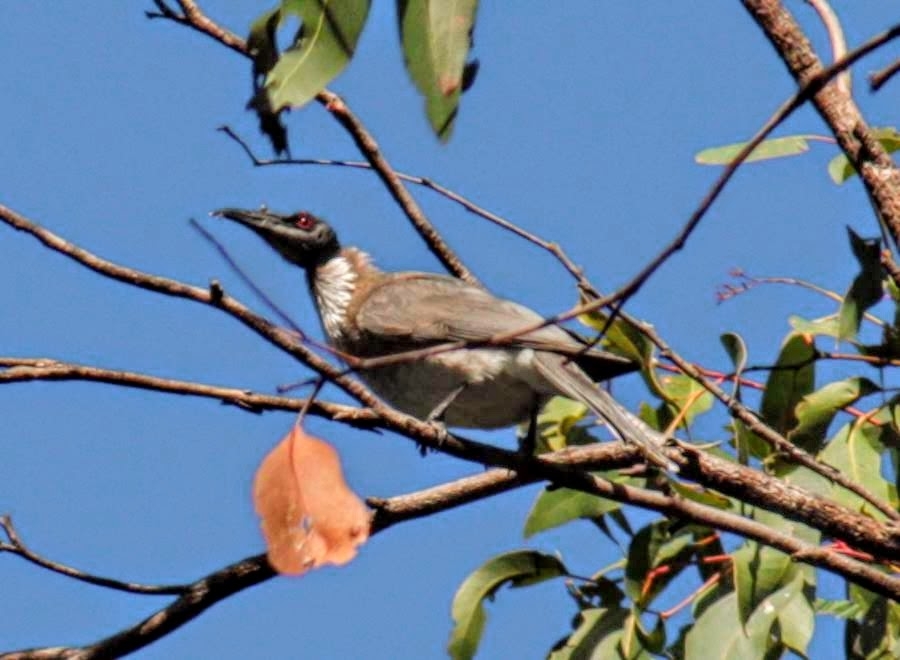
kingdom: Animalia
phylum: Chordata
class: Aves
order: Passeriformes
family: Meliphagidae
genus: Philemon
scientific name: Philemon corniculatus
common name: Noisy friarbird
